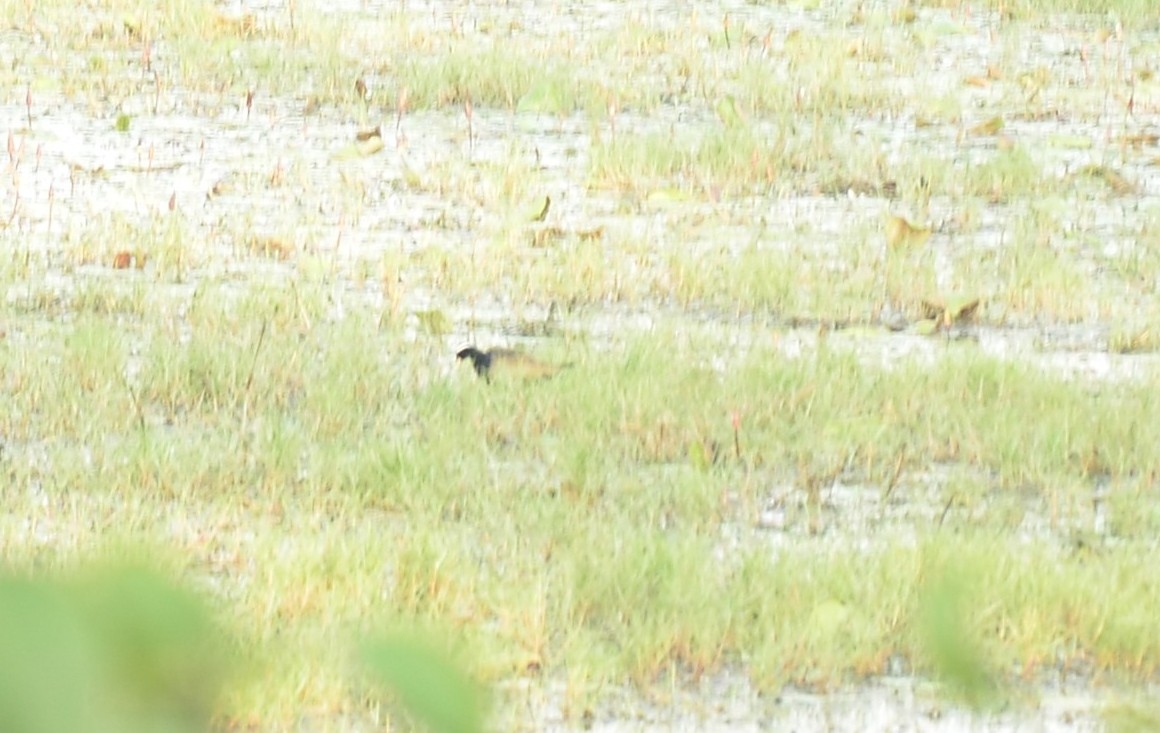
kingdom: Animalia
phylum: Chordata
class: Aves
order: Charadriiformes
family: Jacanidae
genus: Metopidius
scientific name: Metopidius indicus
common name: Bronze-winged jacana
